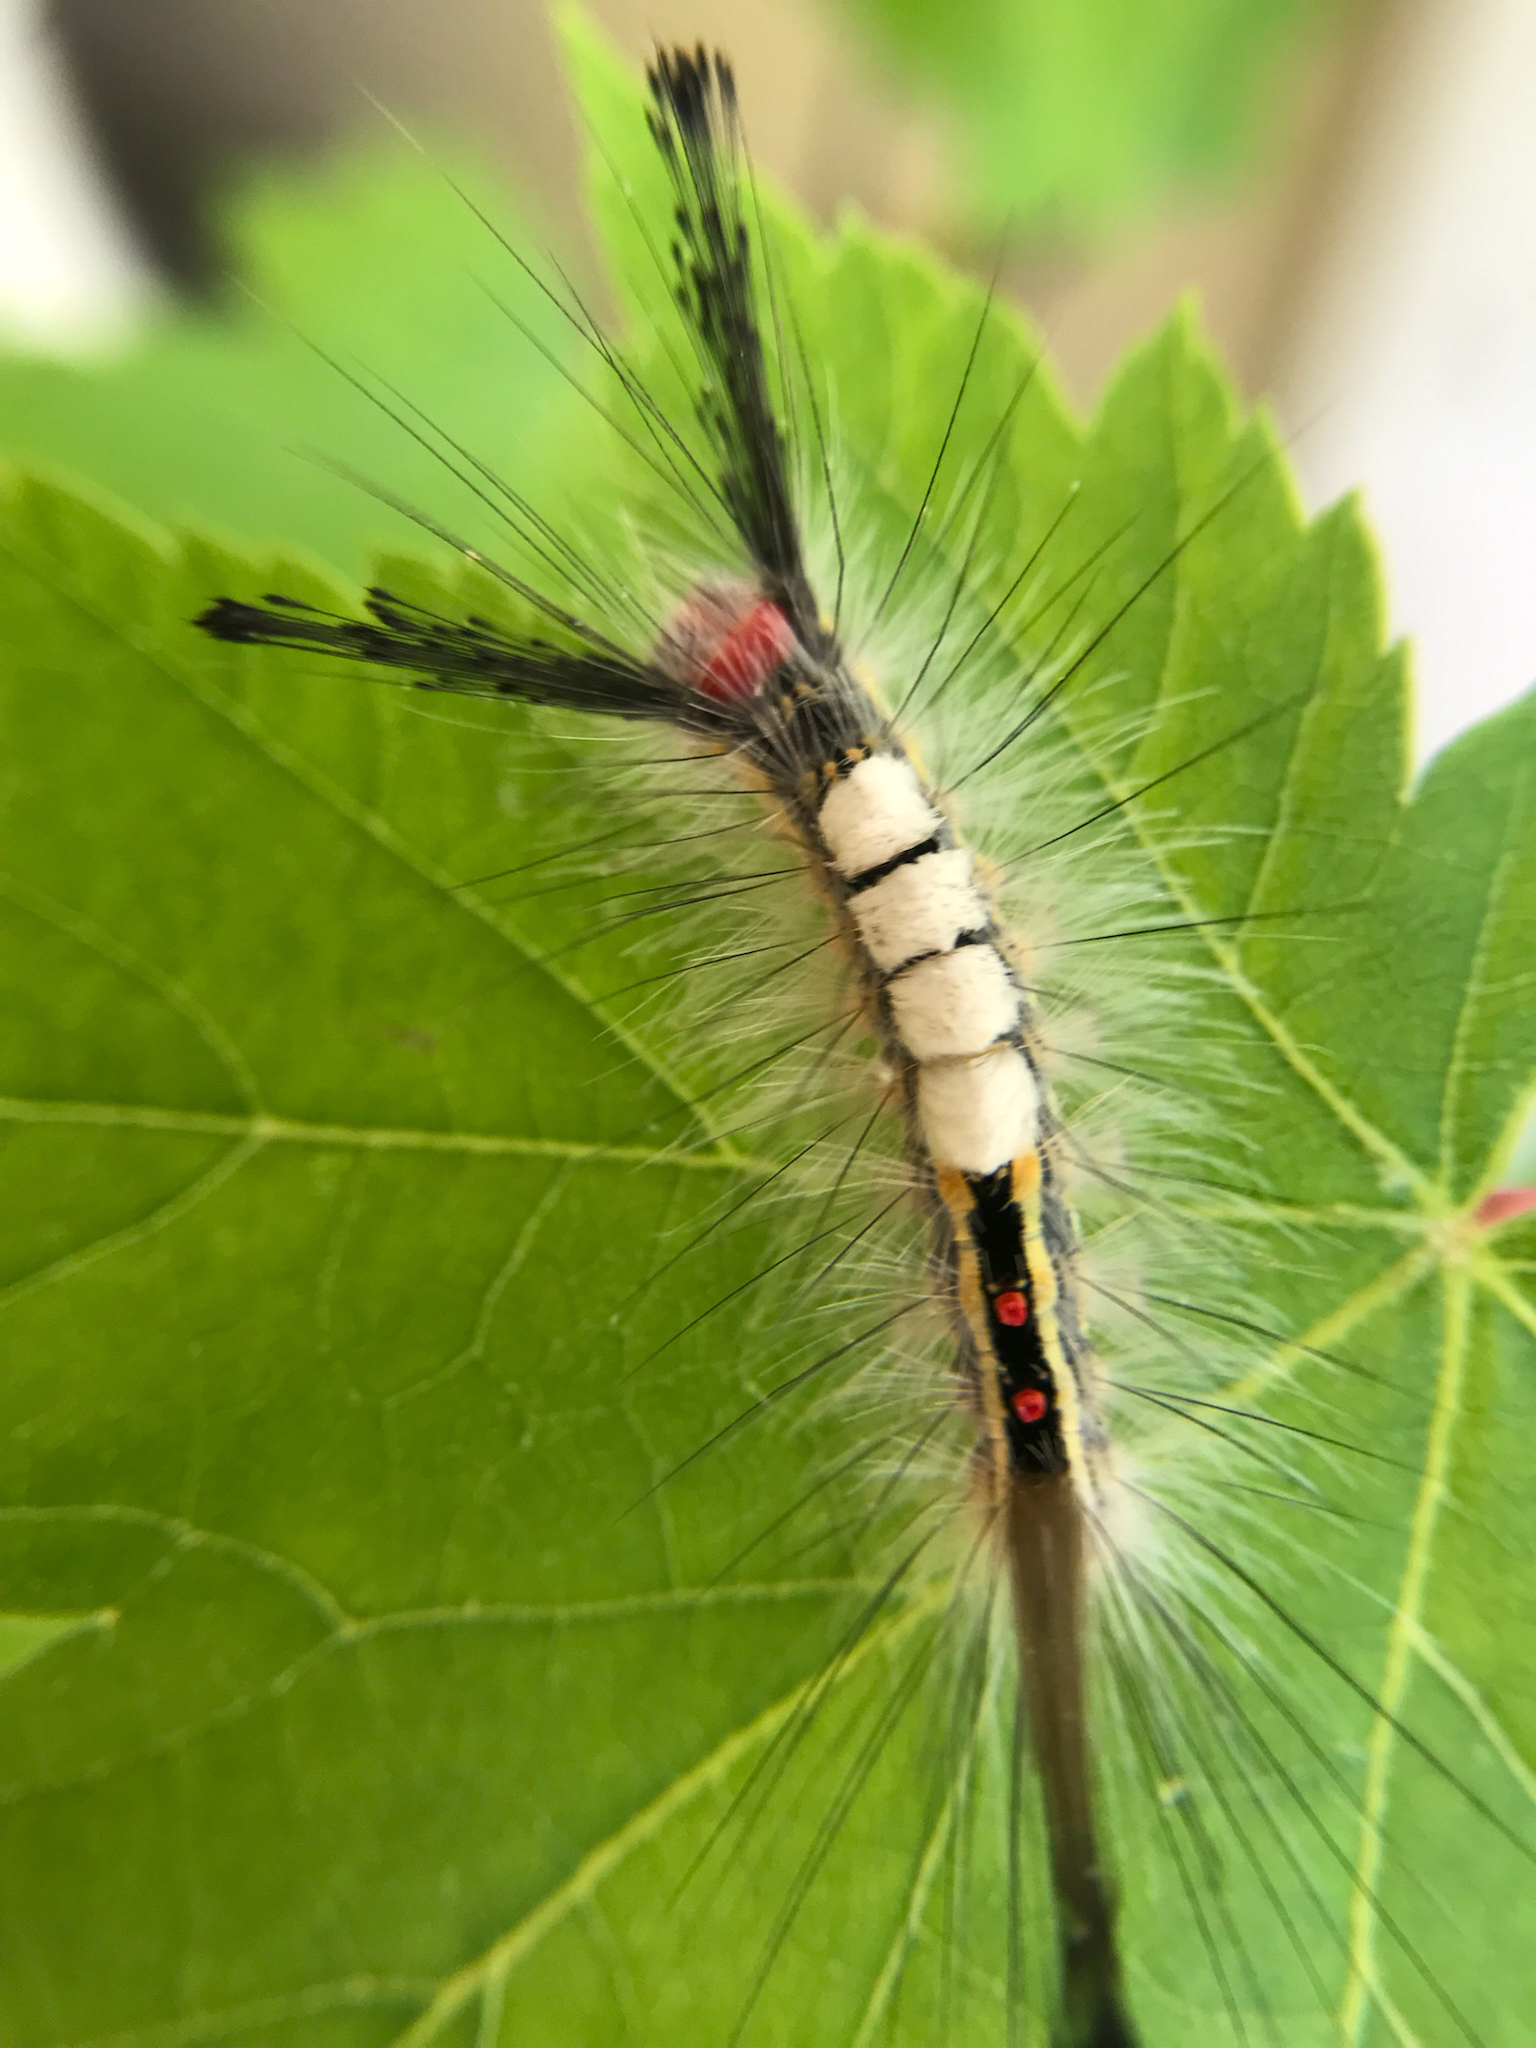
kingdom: Animalia
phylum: Arthropoda
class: Insecta
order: Lepidoptera
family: Erebidae
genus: Orgyia
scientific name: Orgyia leucostigma
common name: White-marked tussock moth
